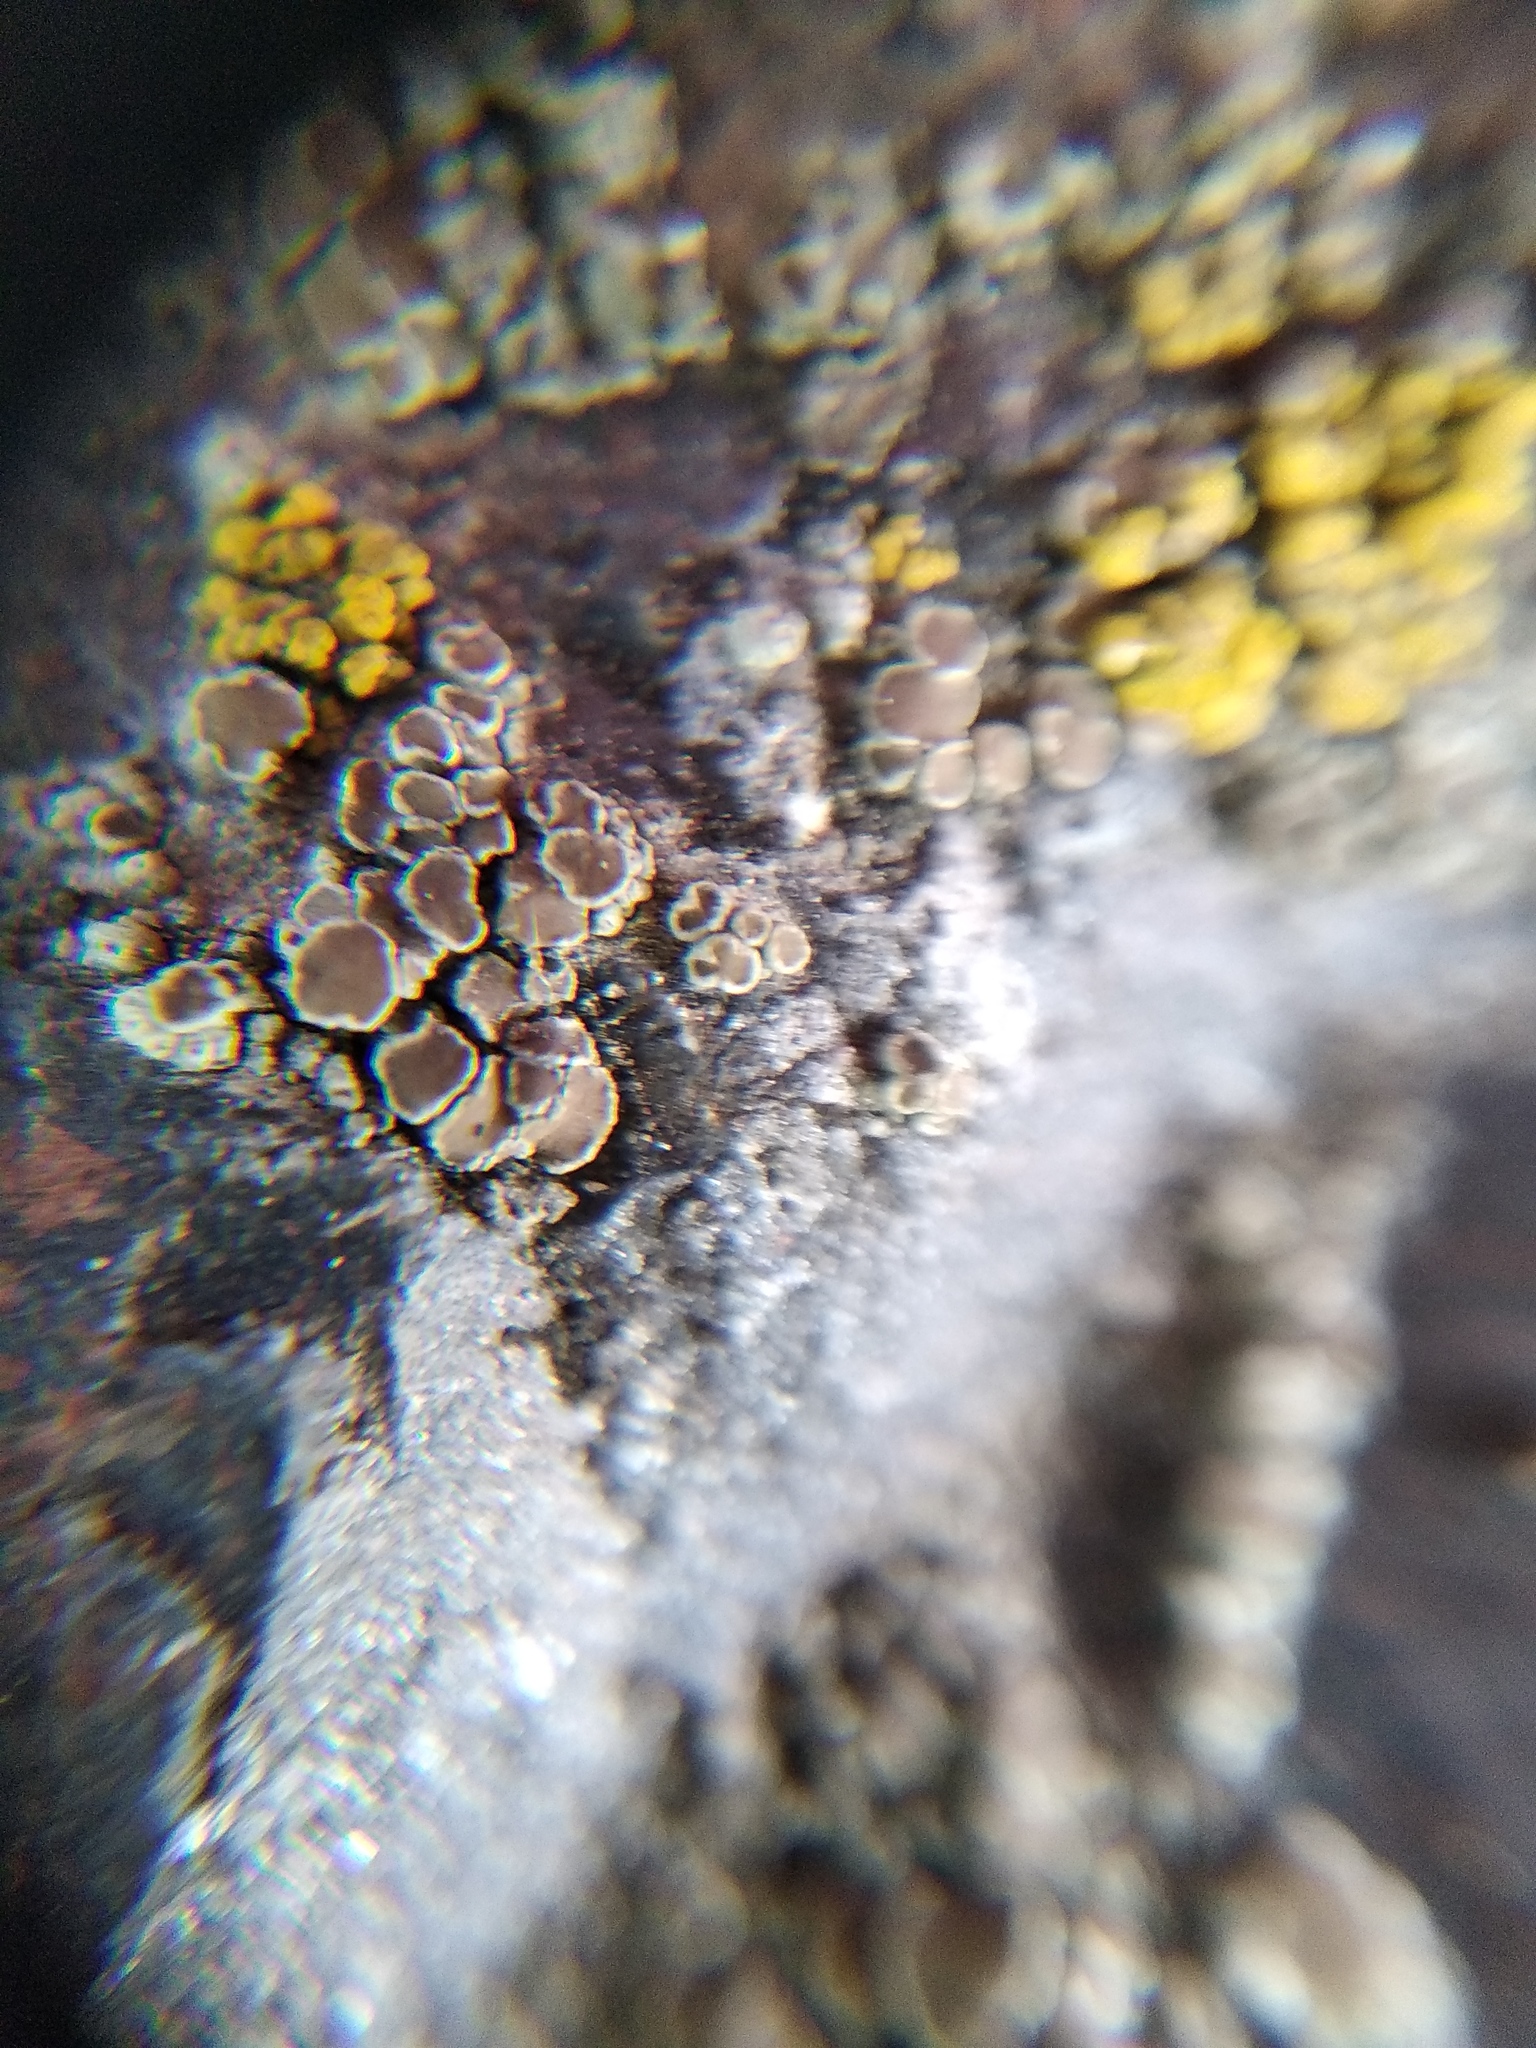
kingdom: Fungi
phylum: Ascomycota
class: Lecanoromycetes
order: Lecanorales
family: Lecanoraceae
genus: Polyozosia
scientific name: Polyozosia dispersa
